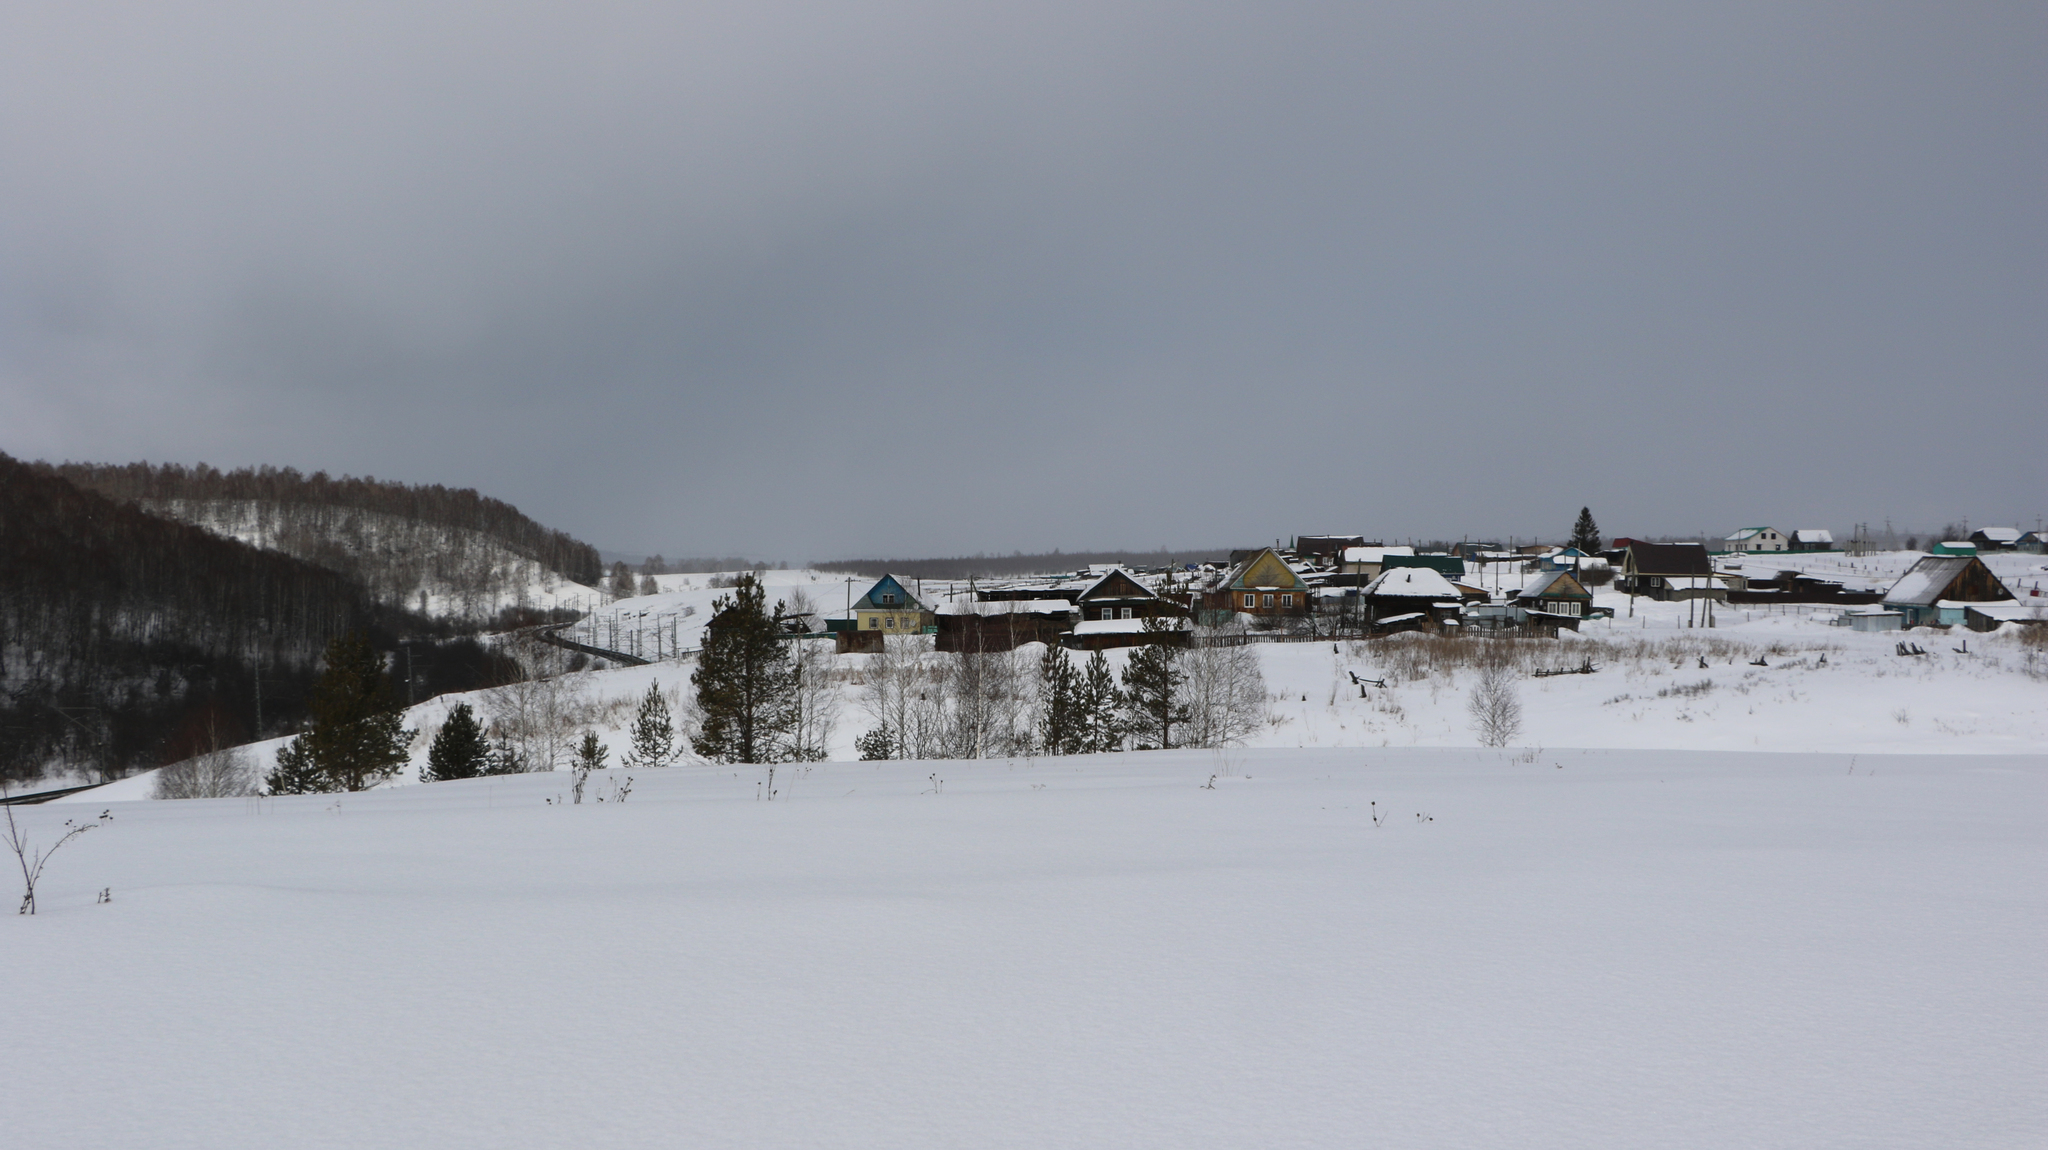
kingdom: Plantae
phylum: Tracheophyta
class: Pinopsida
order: Pinales
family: Pinaceae
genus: Pinus
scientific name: Pinus sylvestris
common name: Scots pine
